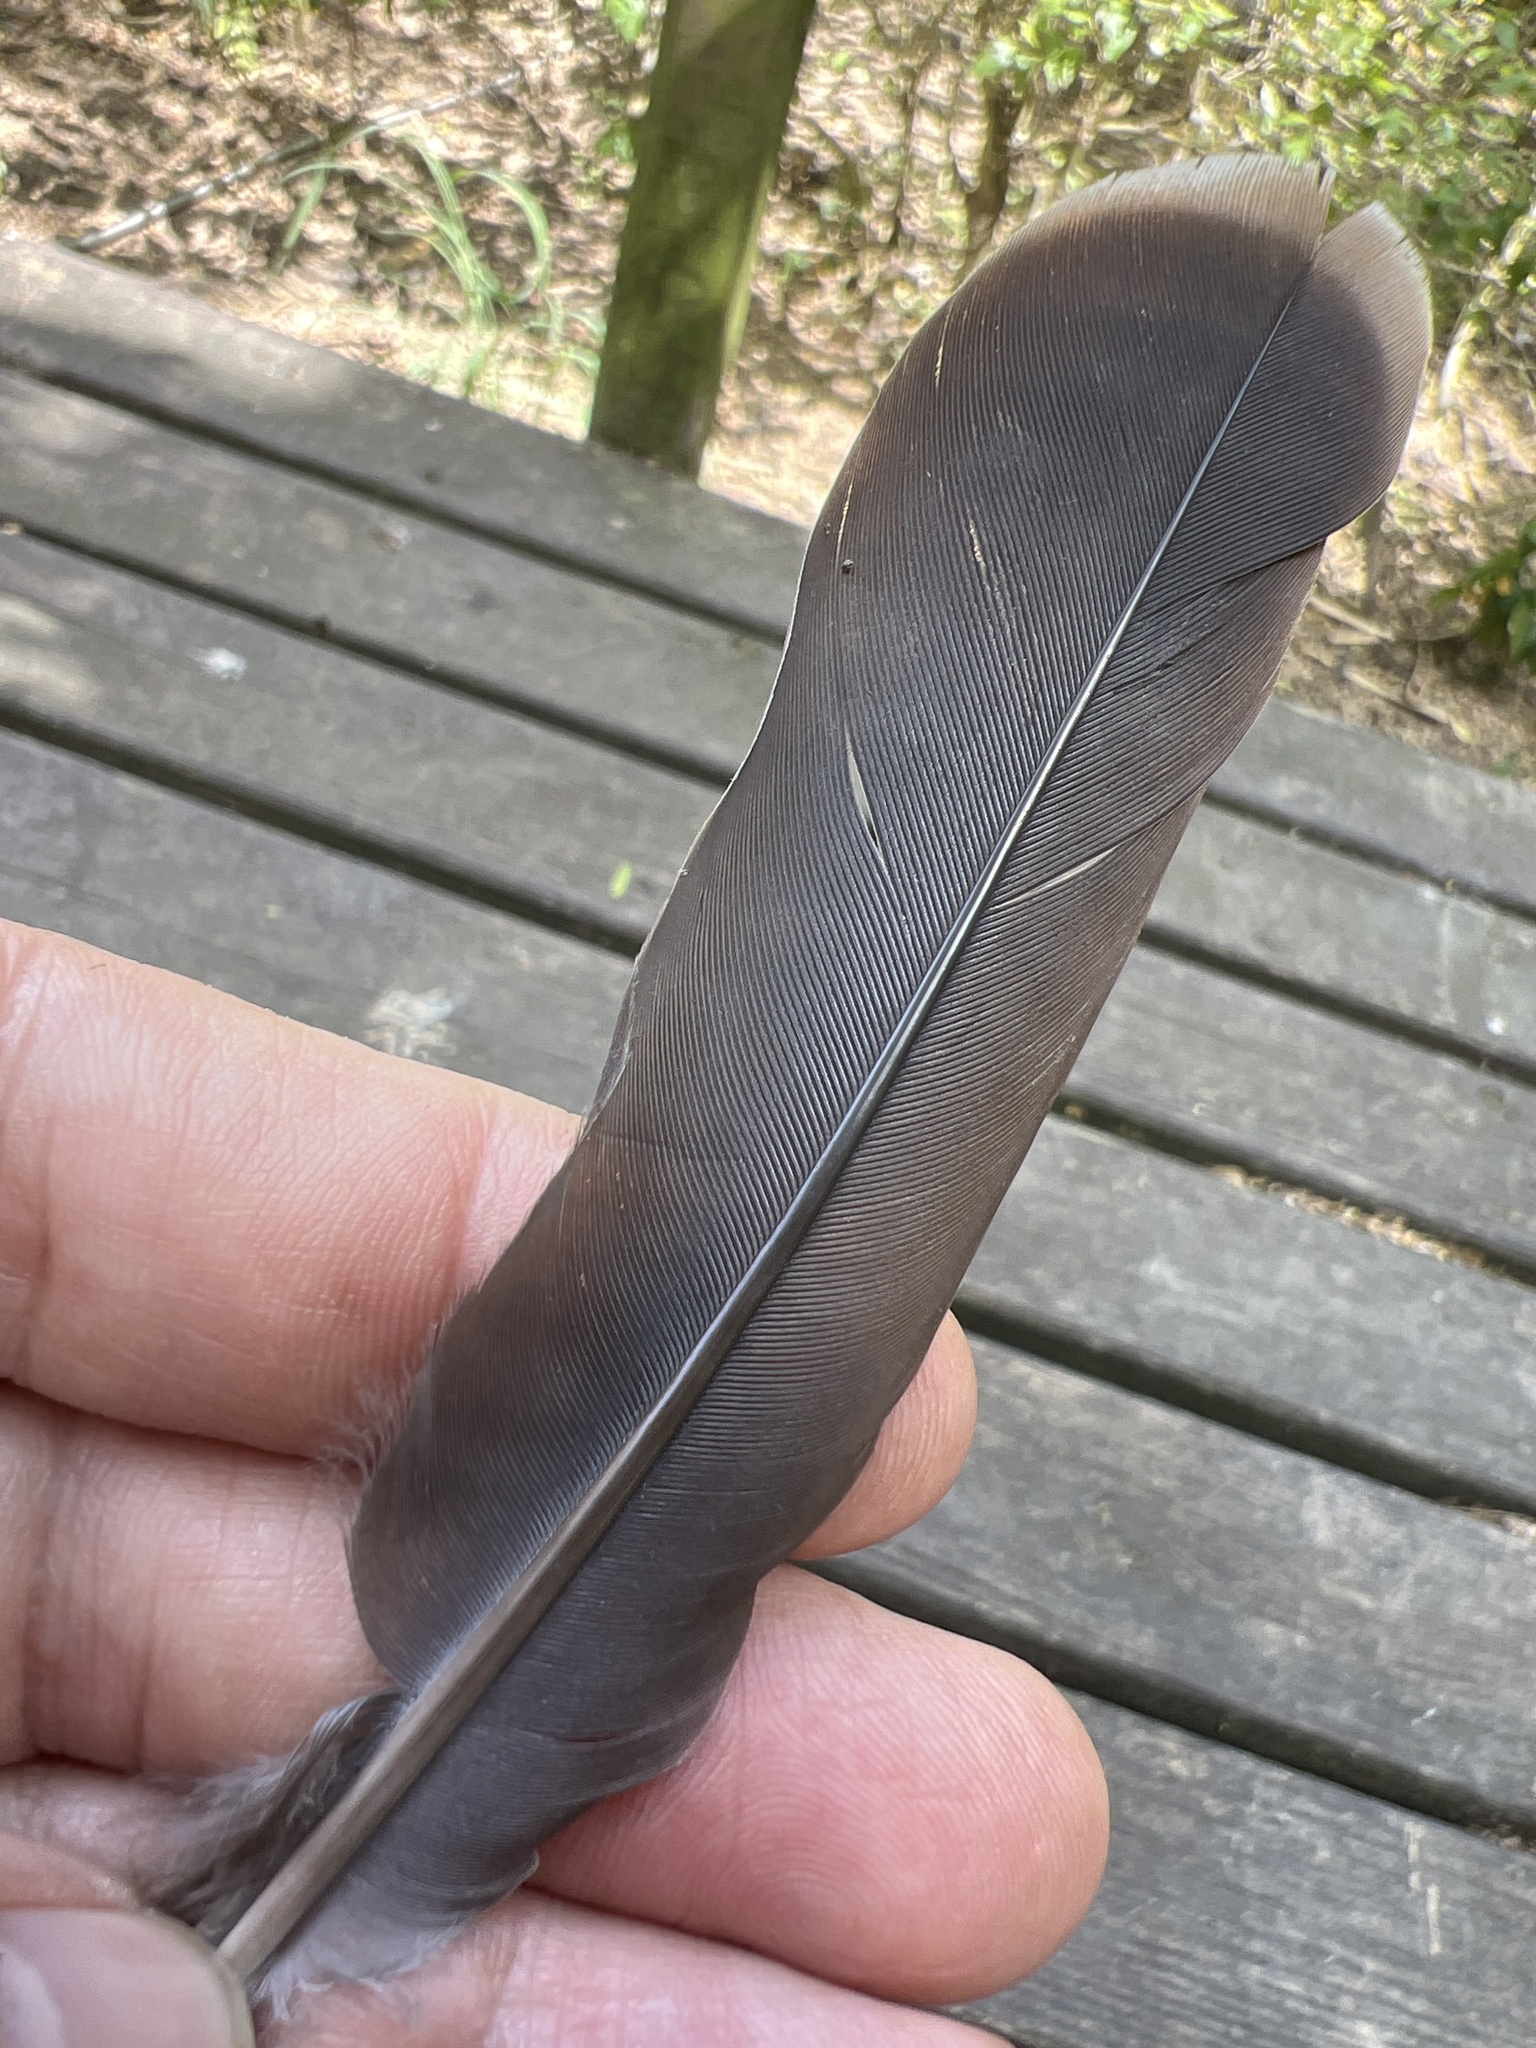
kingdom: Animalia
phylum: Chordata
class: Aves
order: Columbiformes
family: Columbidae
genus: Leptotila
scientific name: Leptotila verreauxi
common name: White-tipped dove
